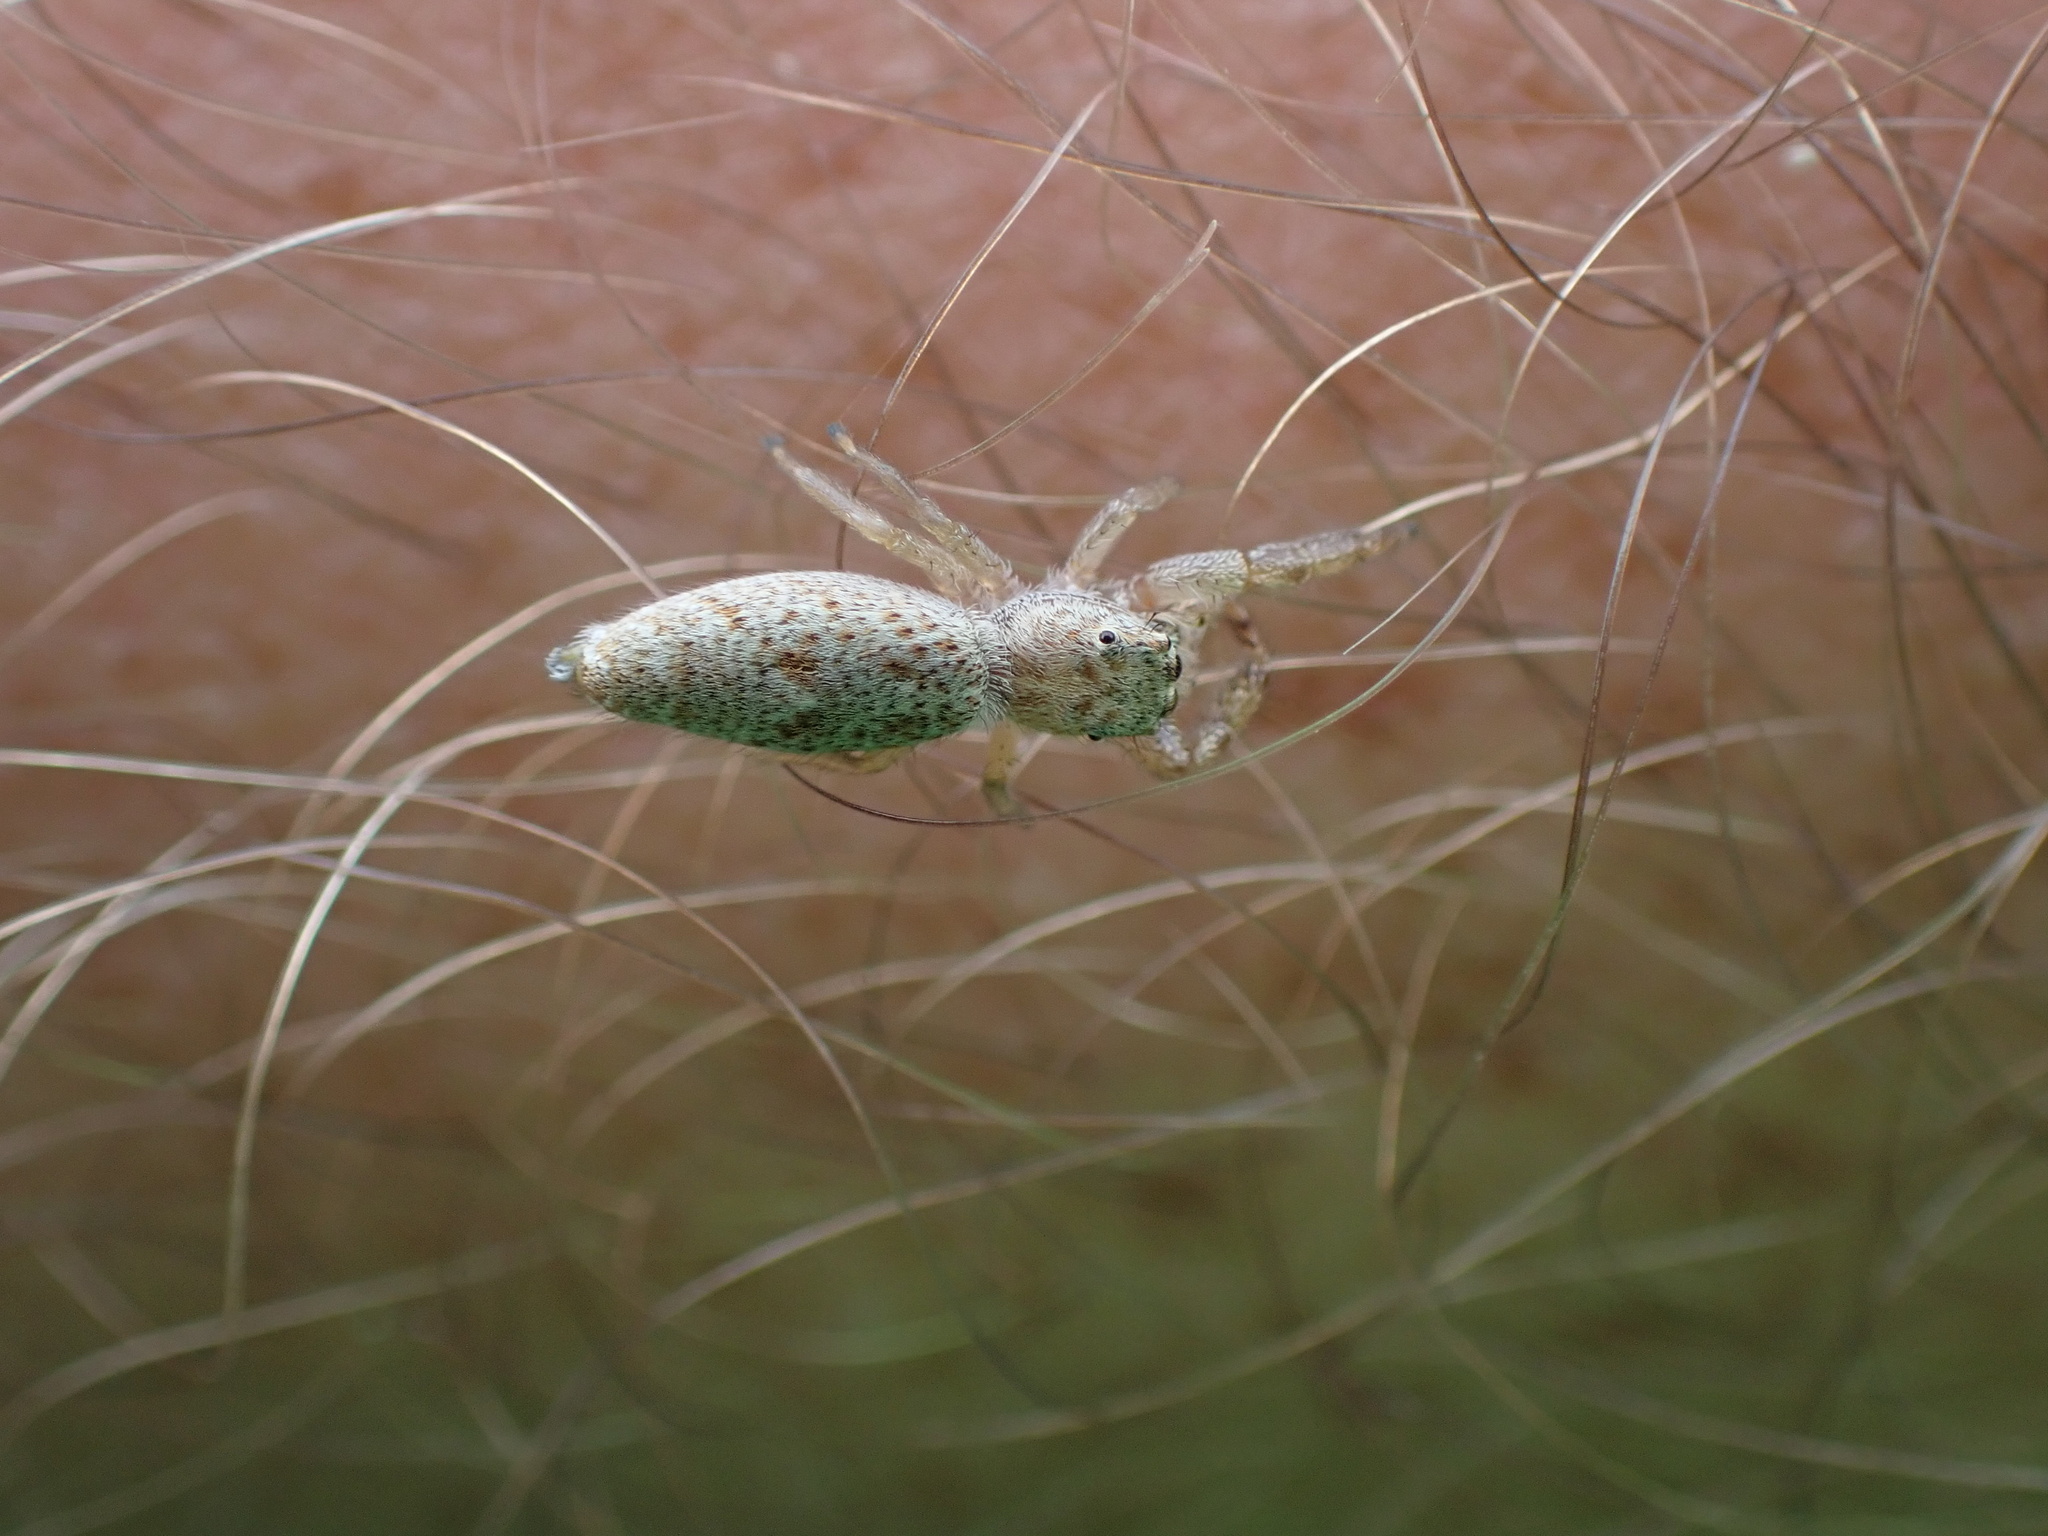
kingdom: Animalia
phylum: Arthropoda
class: Arachnida
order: Araneae
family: Salticidae
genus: Hentzia
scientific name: Hentzia mitrata
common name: White-jawed jumping spider
